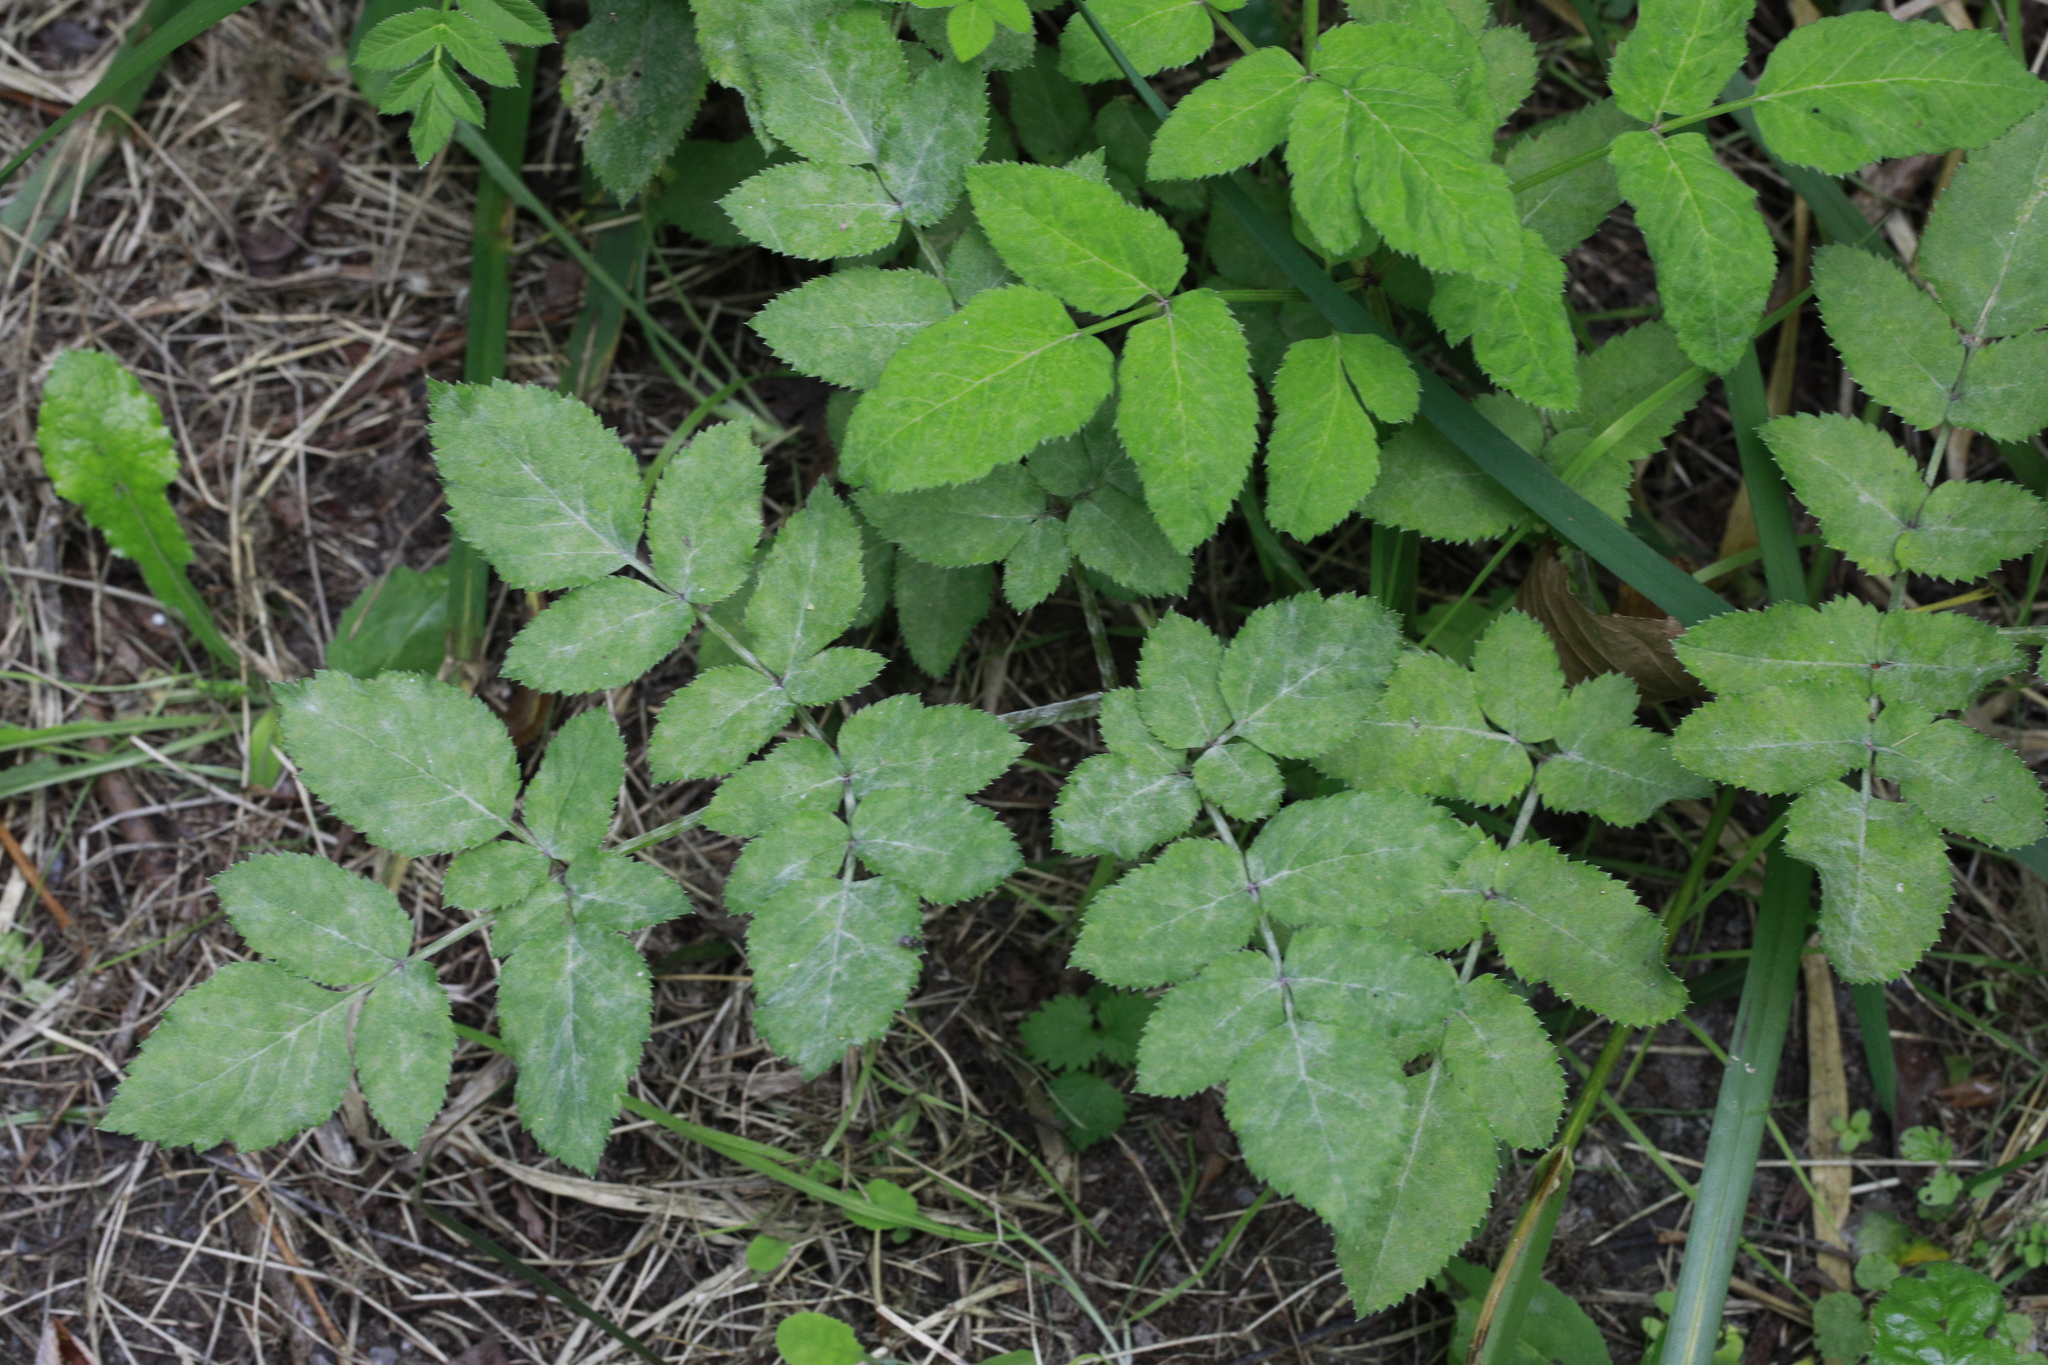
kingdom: Plantae
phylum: Tracheophyta
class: Magnoliopsida
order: Apiales
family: Apiaceae
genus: Angelica
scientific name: Angelica sylvestris
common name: Wild angelica
